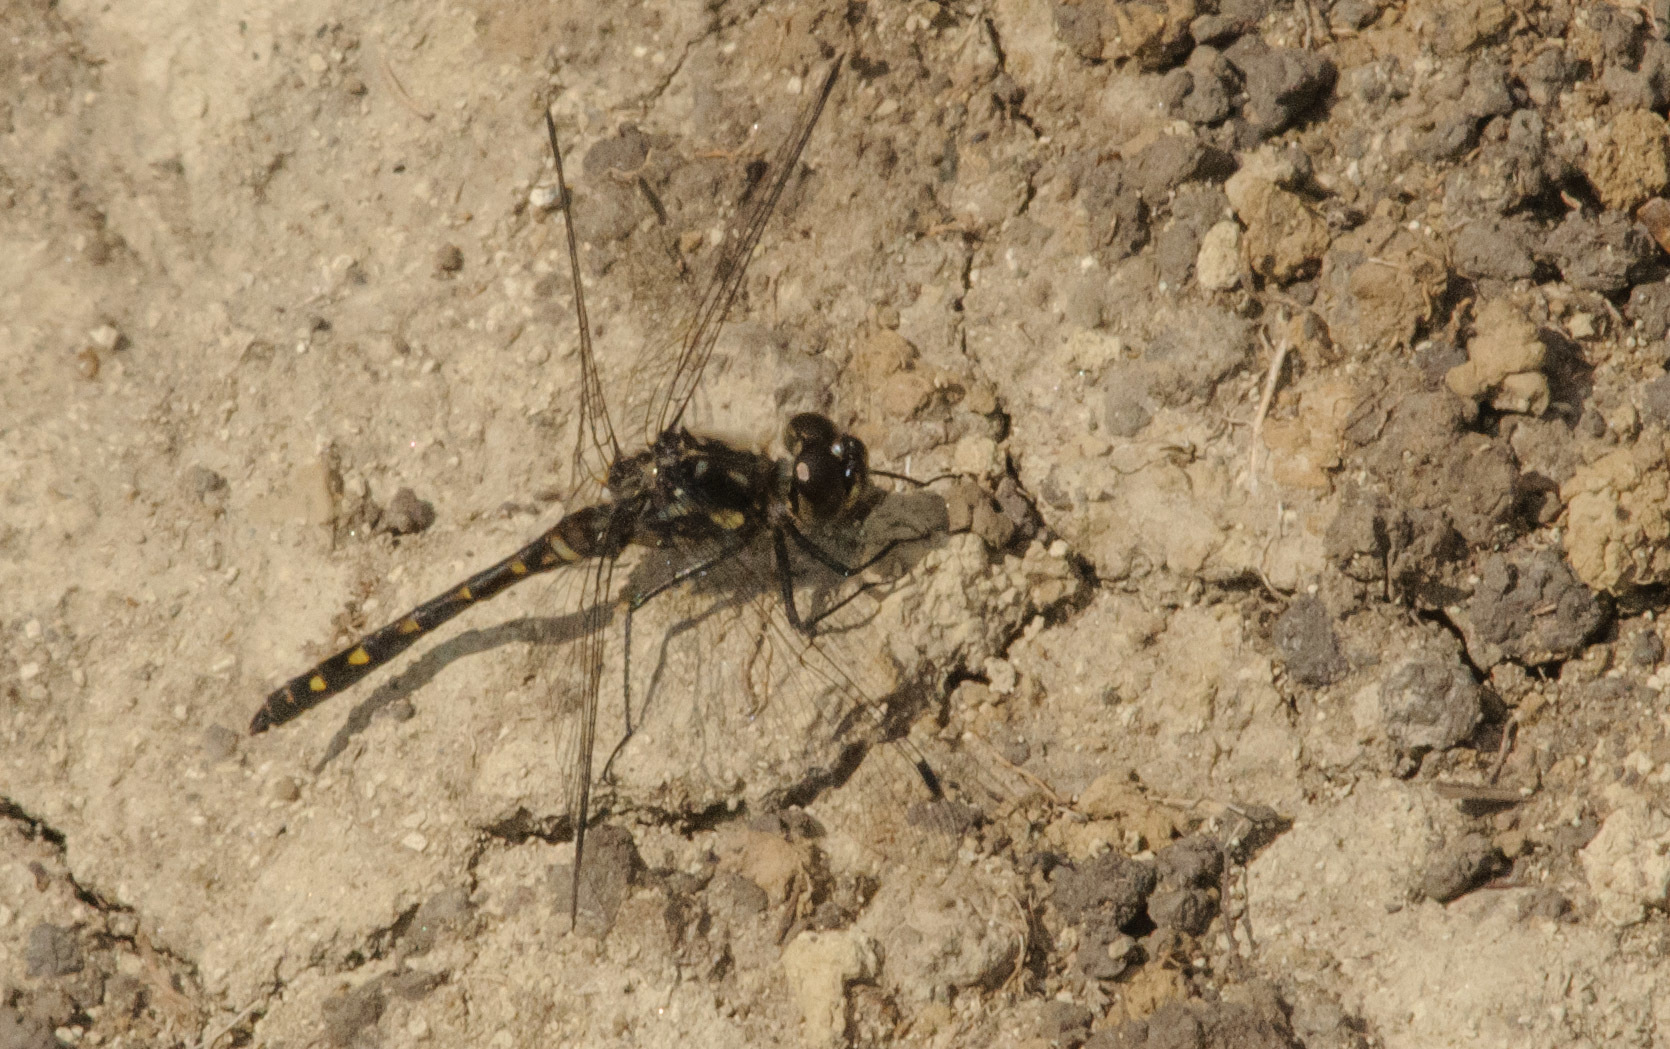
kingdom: Animalia
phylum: Arthropoda
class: Insecta
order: Odonata
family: Libellulidae
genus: Sympetrum
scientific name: Sympetrum danae
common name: Black darter
